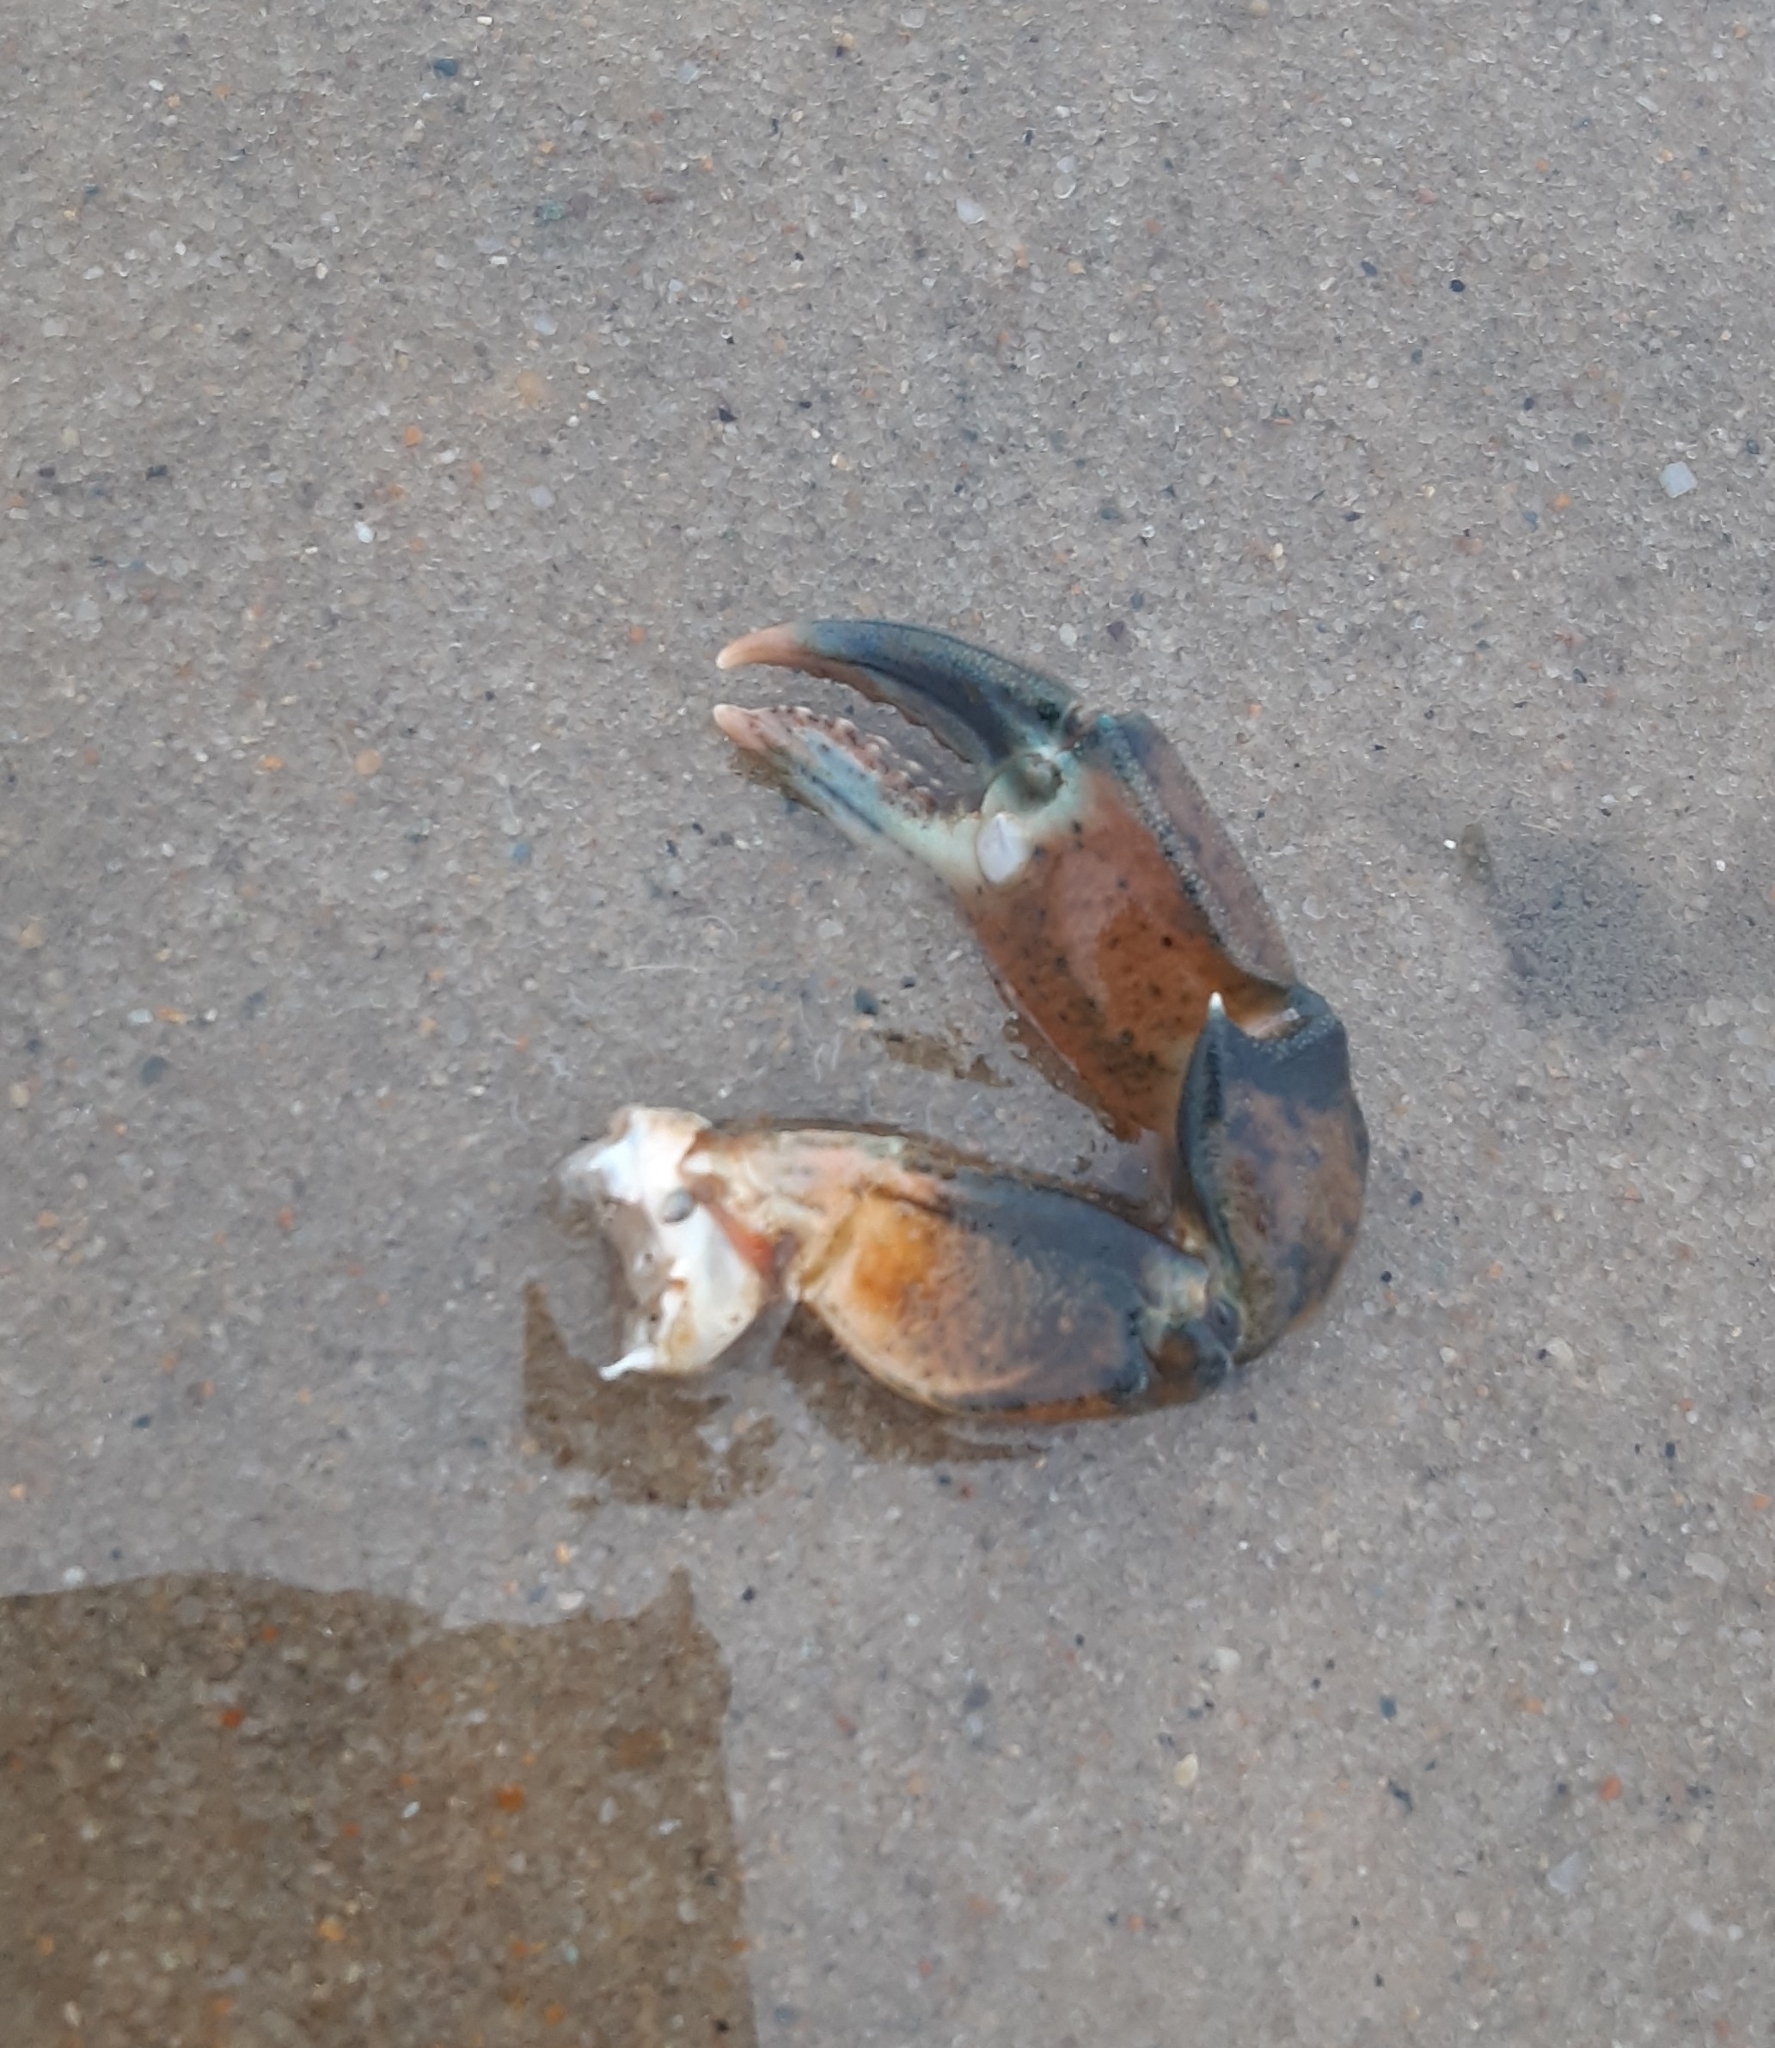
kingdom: Animalia
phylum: Arthropoda
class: Malacostraca
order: Decapoda
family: Carcinidae
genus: Carcinus
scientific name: Carcinus maenas
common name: European green crab
